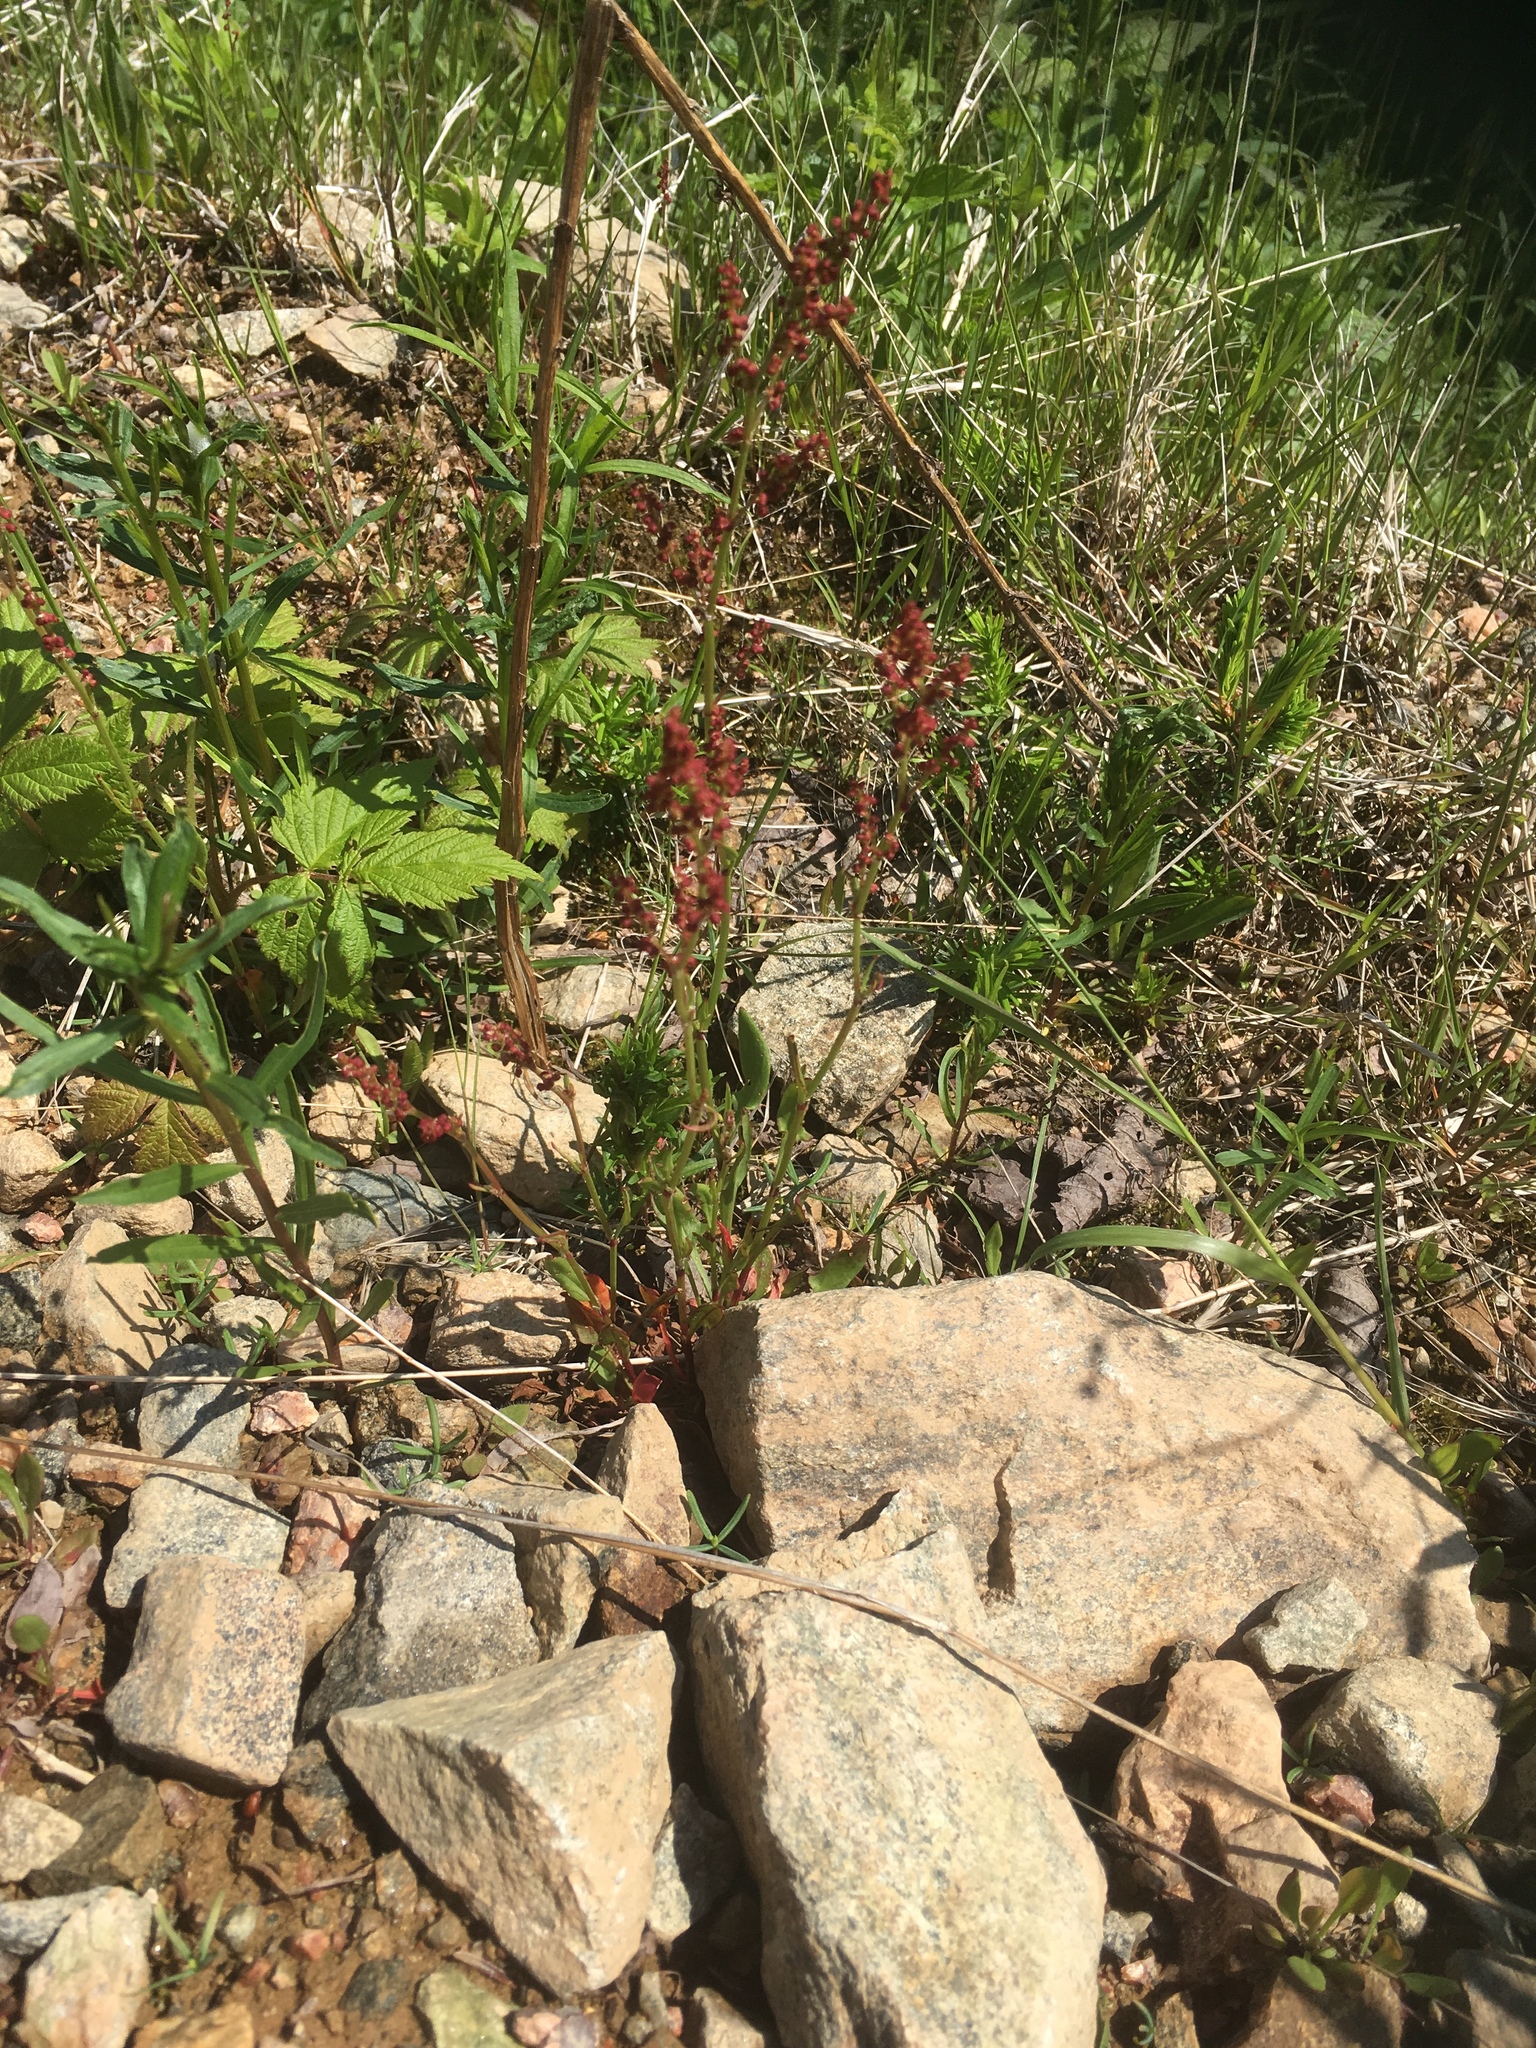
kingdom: Plantae
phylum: Tracheophyta
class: Magnoliopsida
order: Caryophyllales
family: Polygonaceae
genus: Rumex
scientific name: Rumex acetosella
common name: Common sheep sorrel
